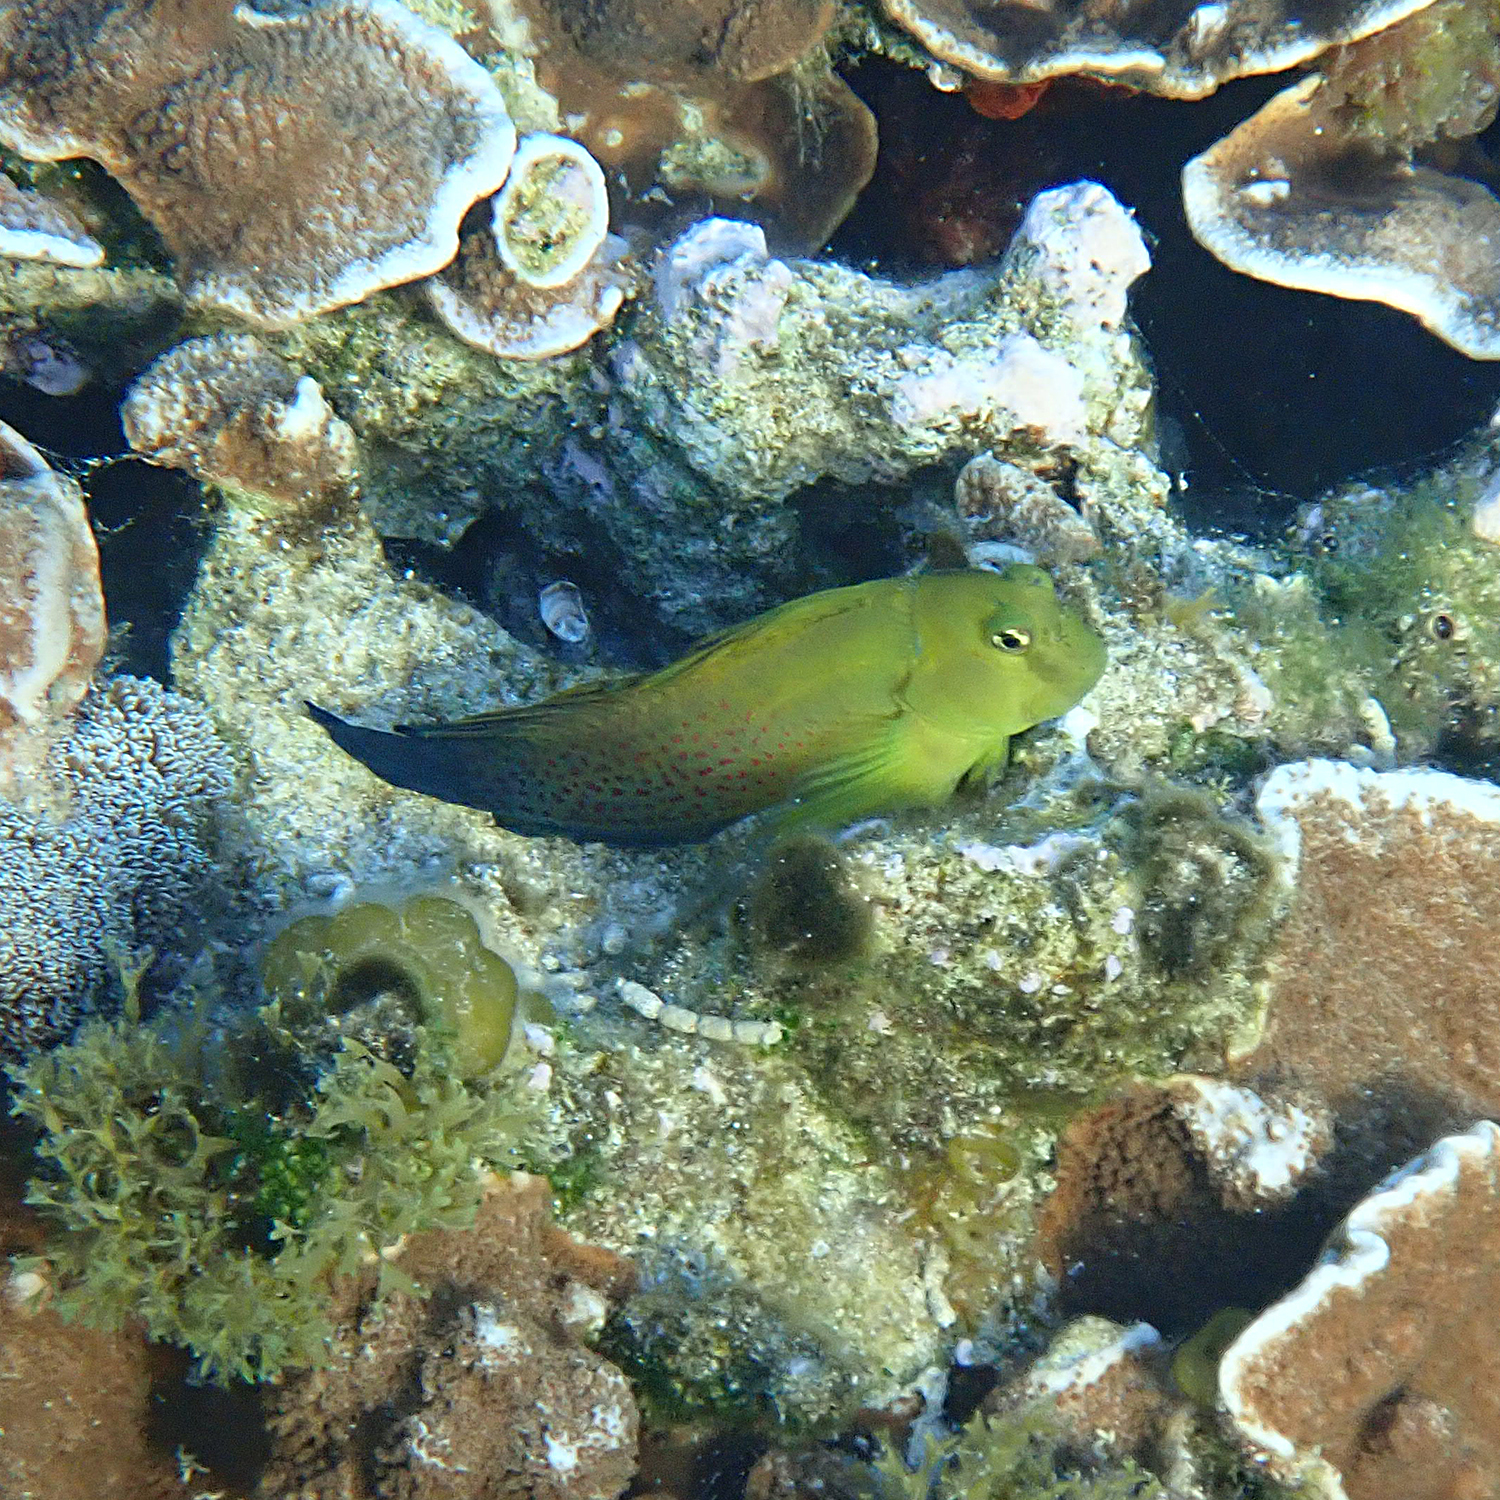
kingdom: Animalia
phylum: Chordata
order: Perciformes
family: Blenniidae
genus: Cirripectes
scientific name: Cirripectes chelomatus
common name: Lady musgrave blenny
